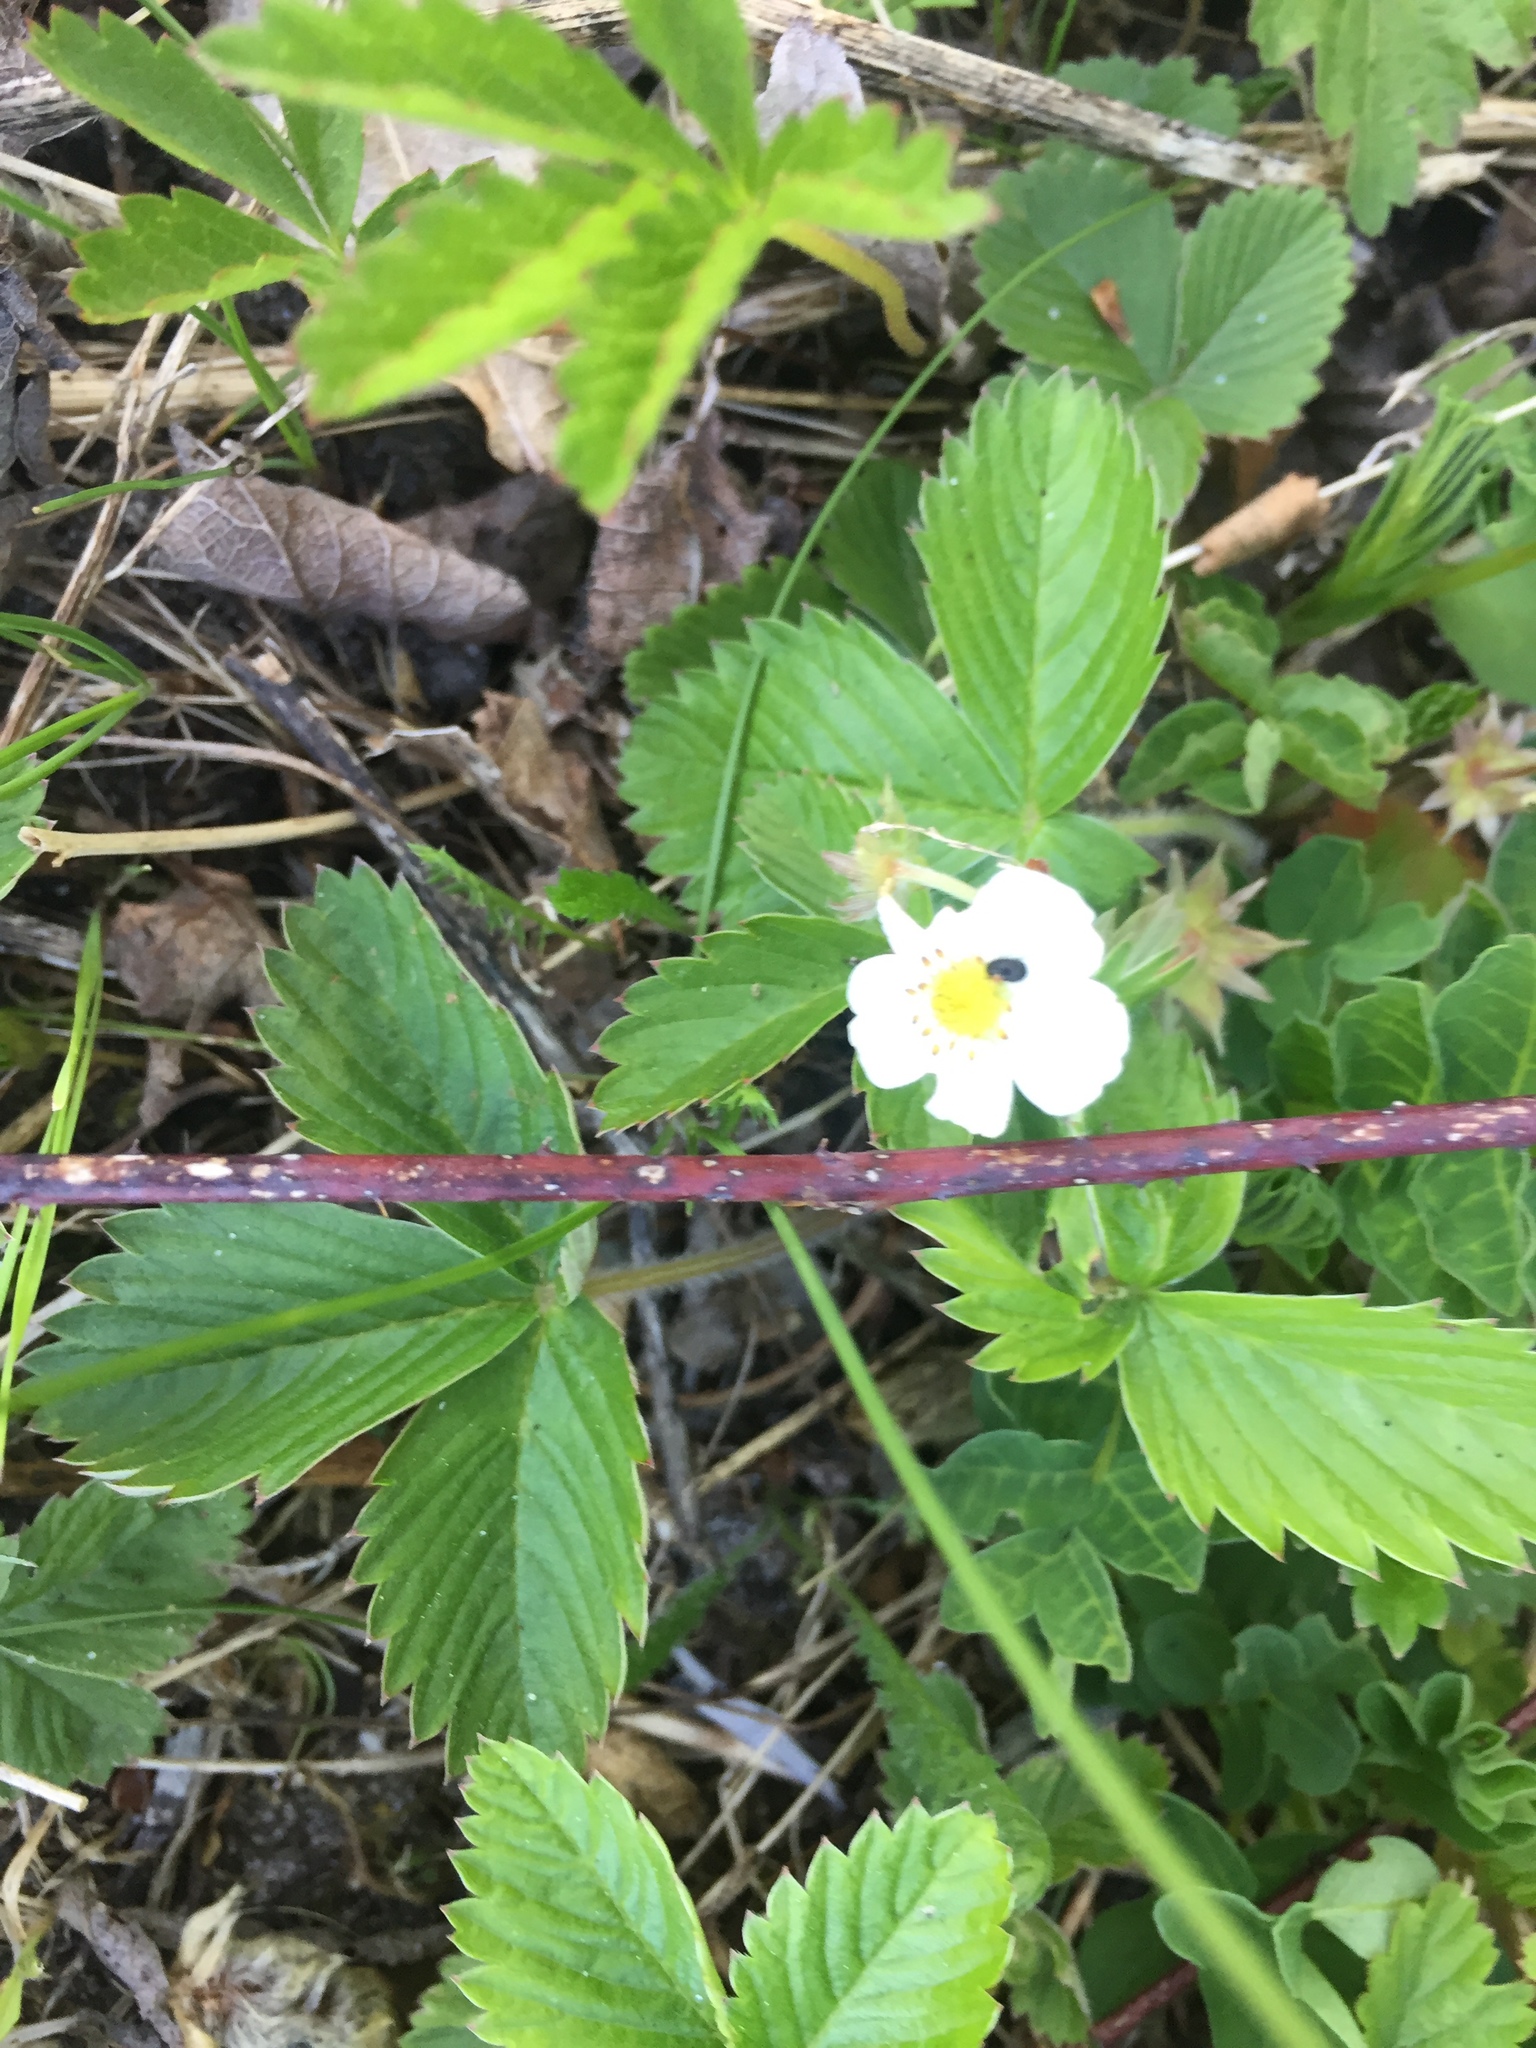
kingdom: Plantae
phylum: Tracheophyta
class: Magnoliopsida
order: Rosales
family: Rosaceae
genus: Fragaria
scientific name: Fragaria vesca
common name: Wild strawberry
